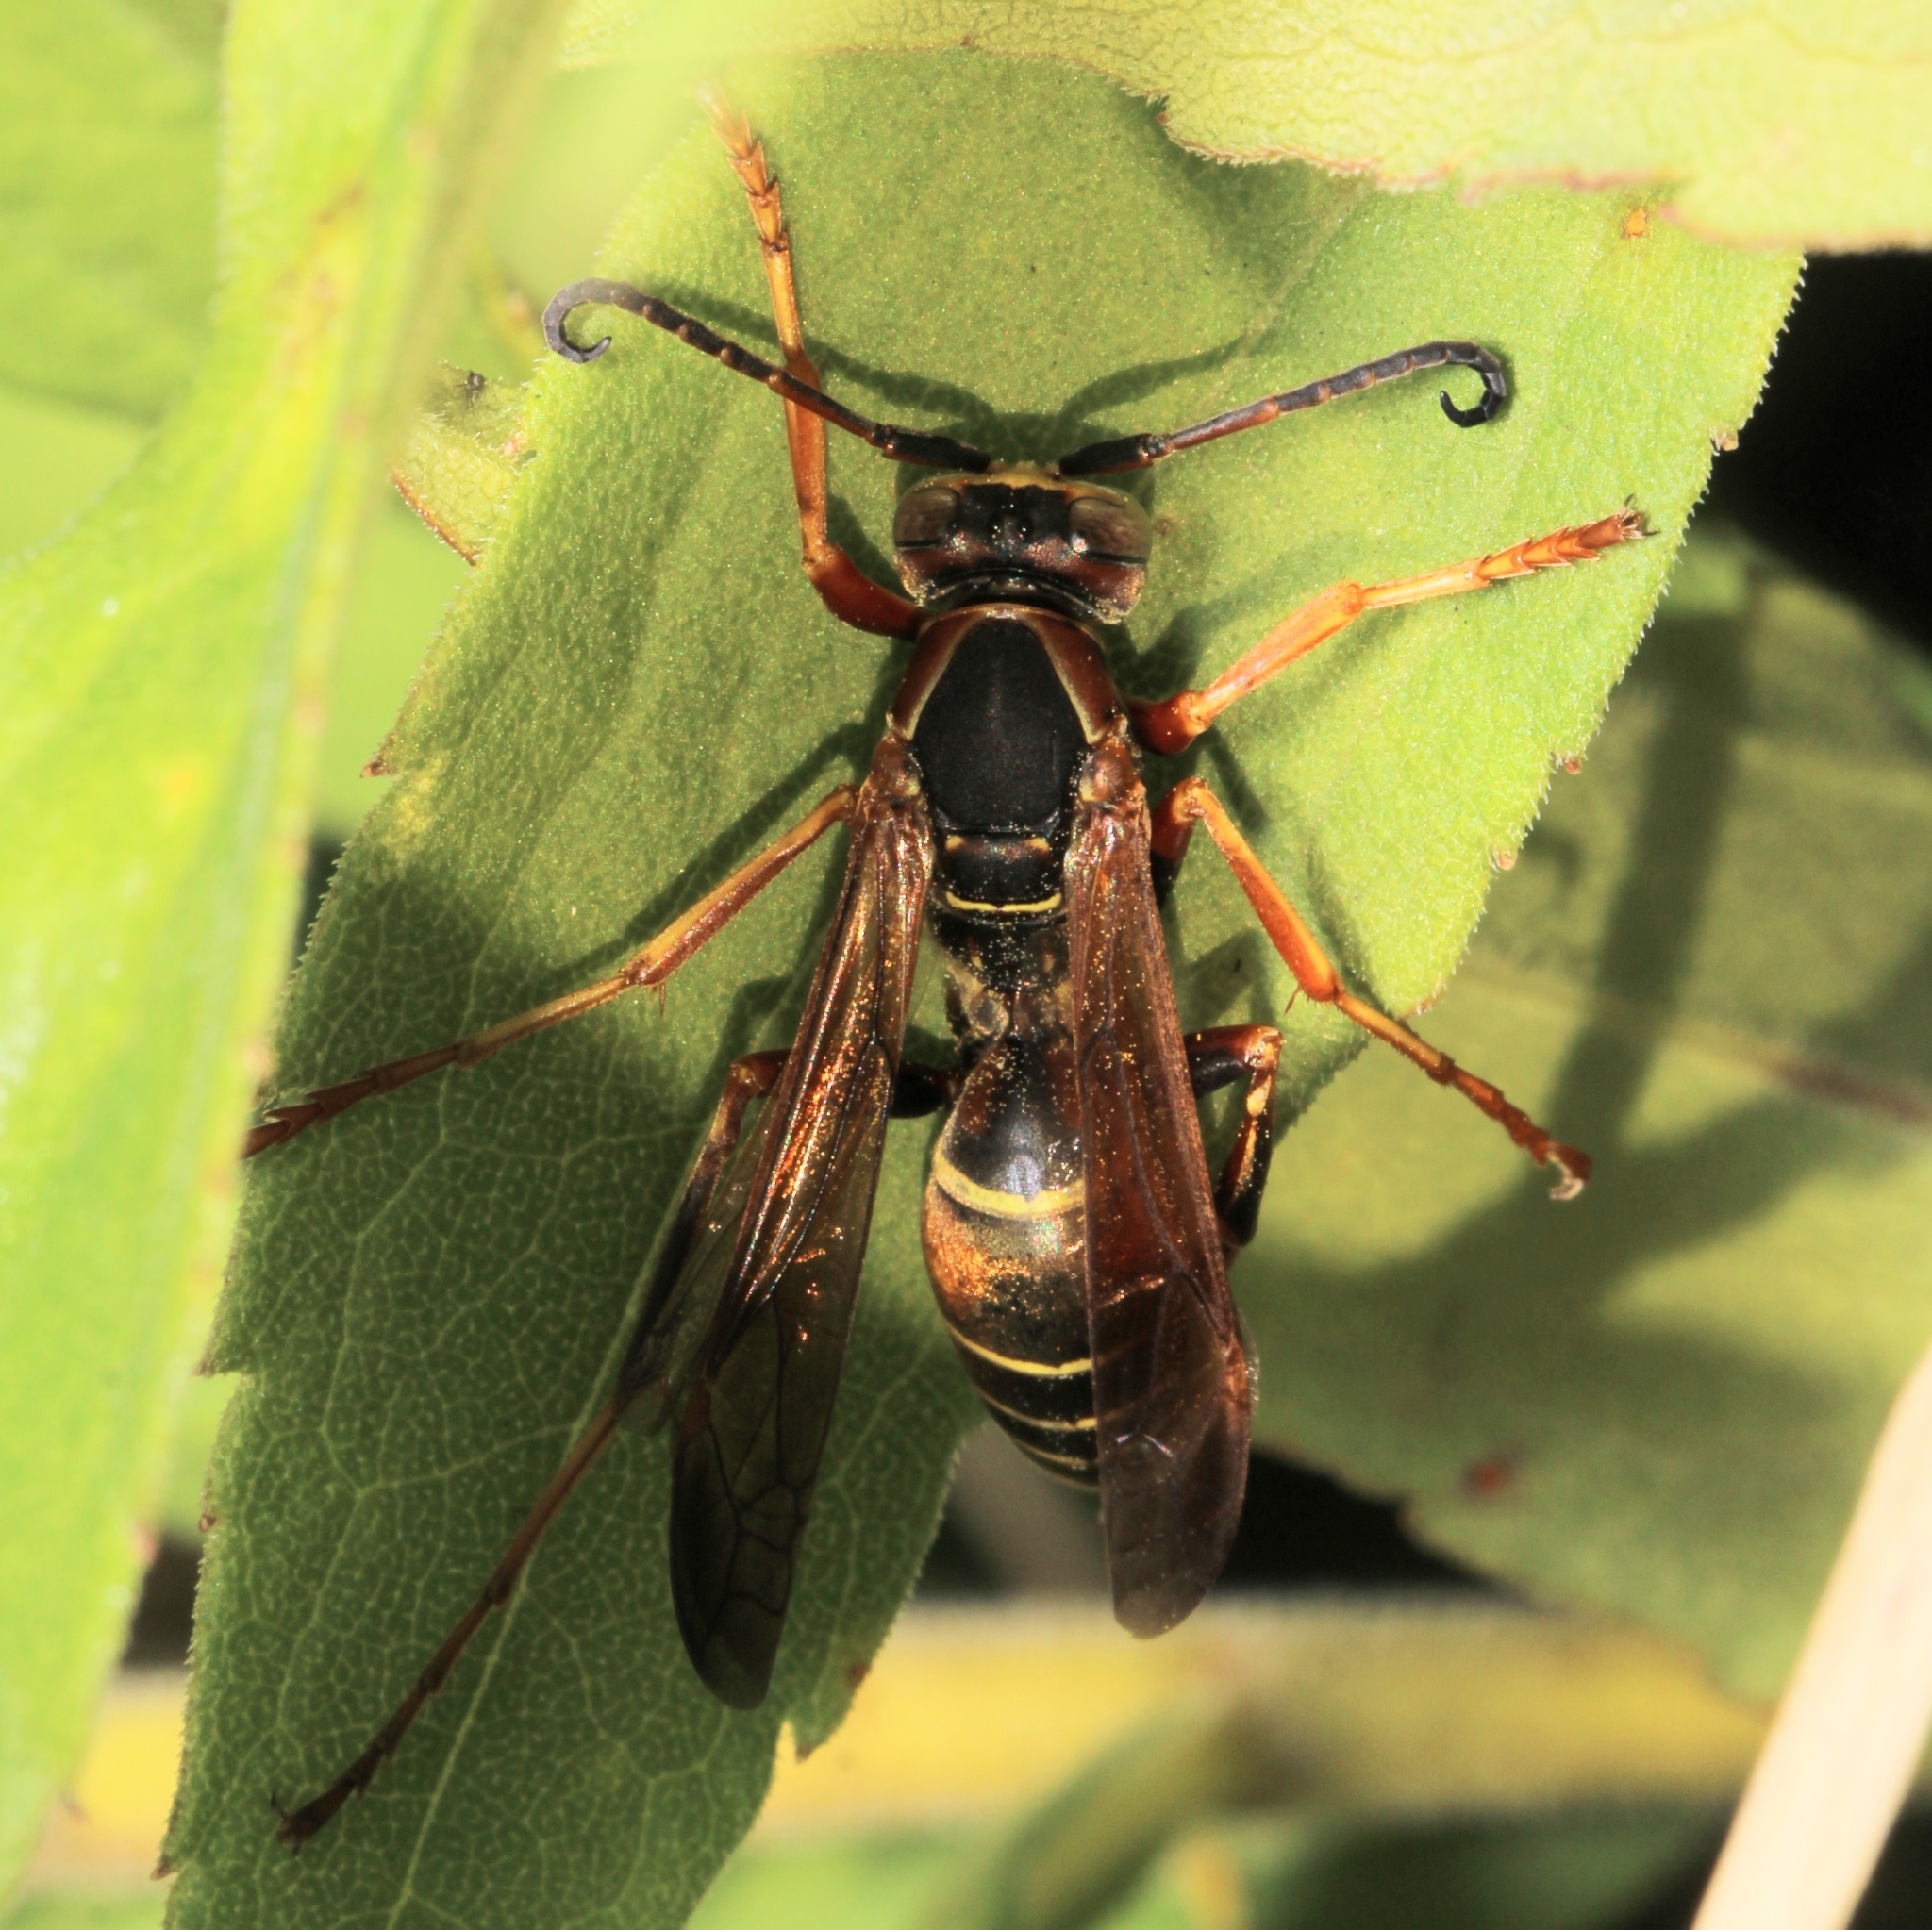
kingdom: Animalia
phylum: Arthropoda
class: Insecta
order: Hymenoptera
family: Eumenidae
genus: Polistes
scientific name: Polistes fuscatus
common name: Dark paper wasp
